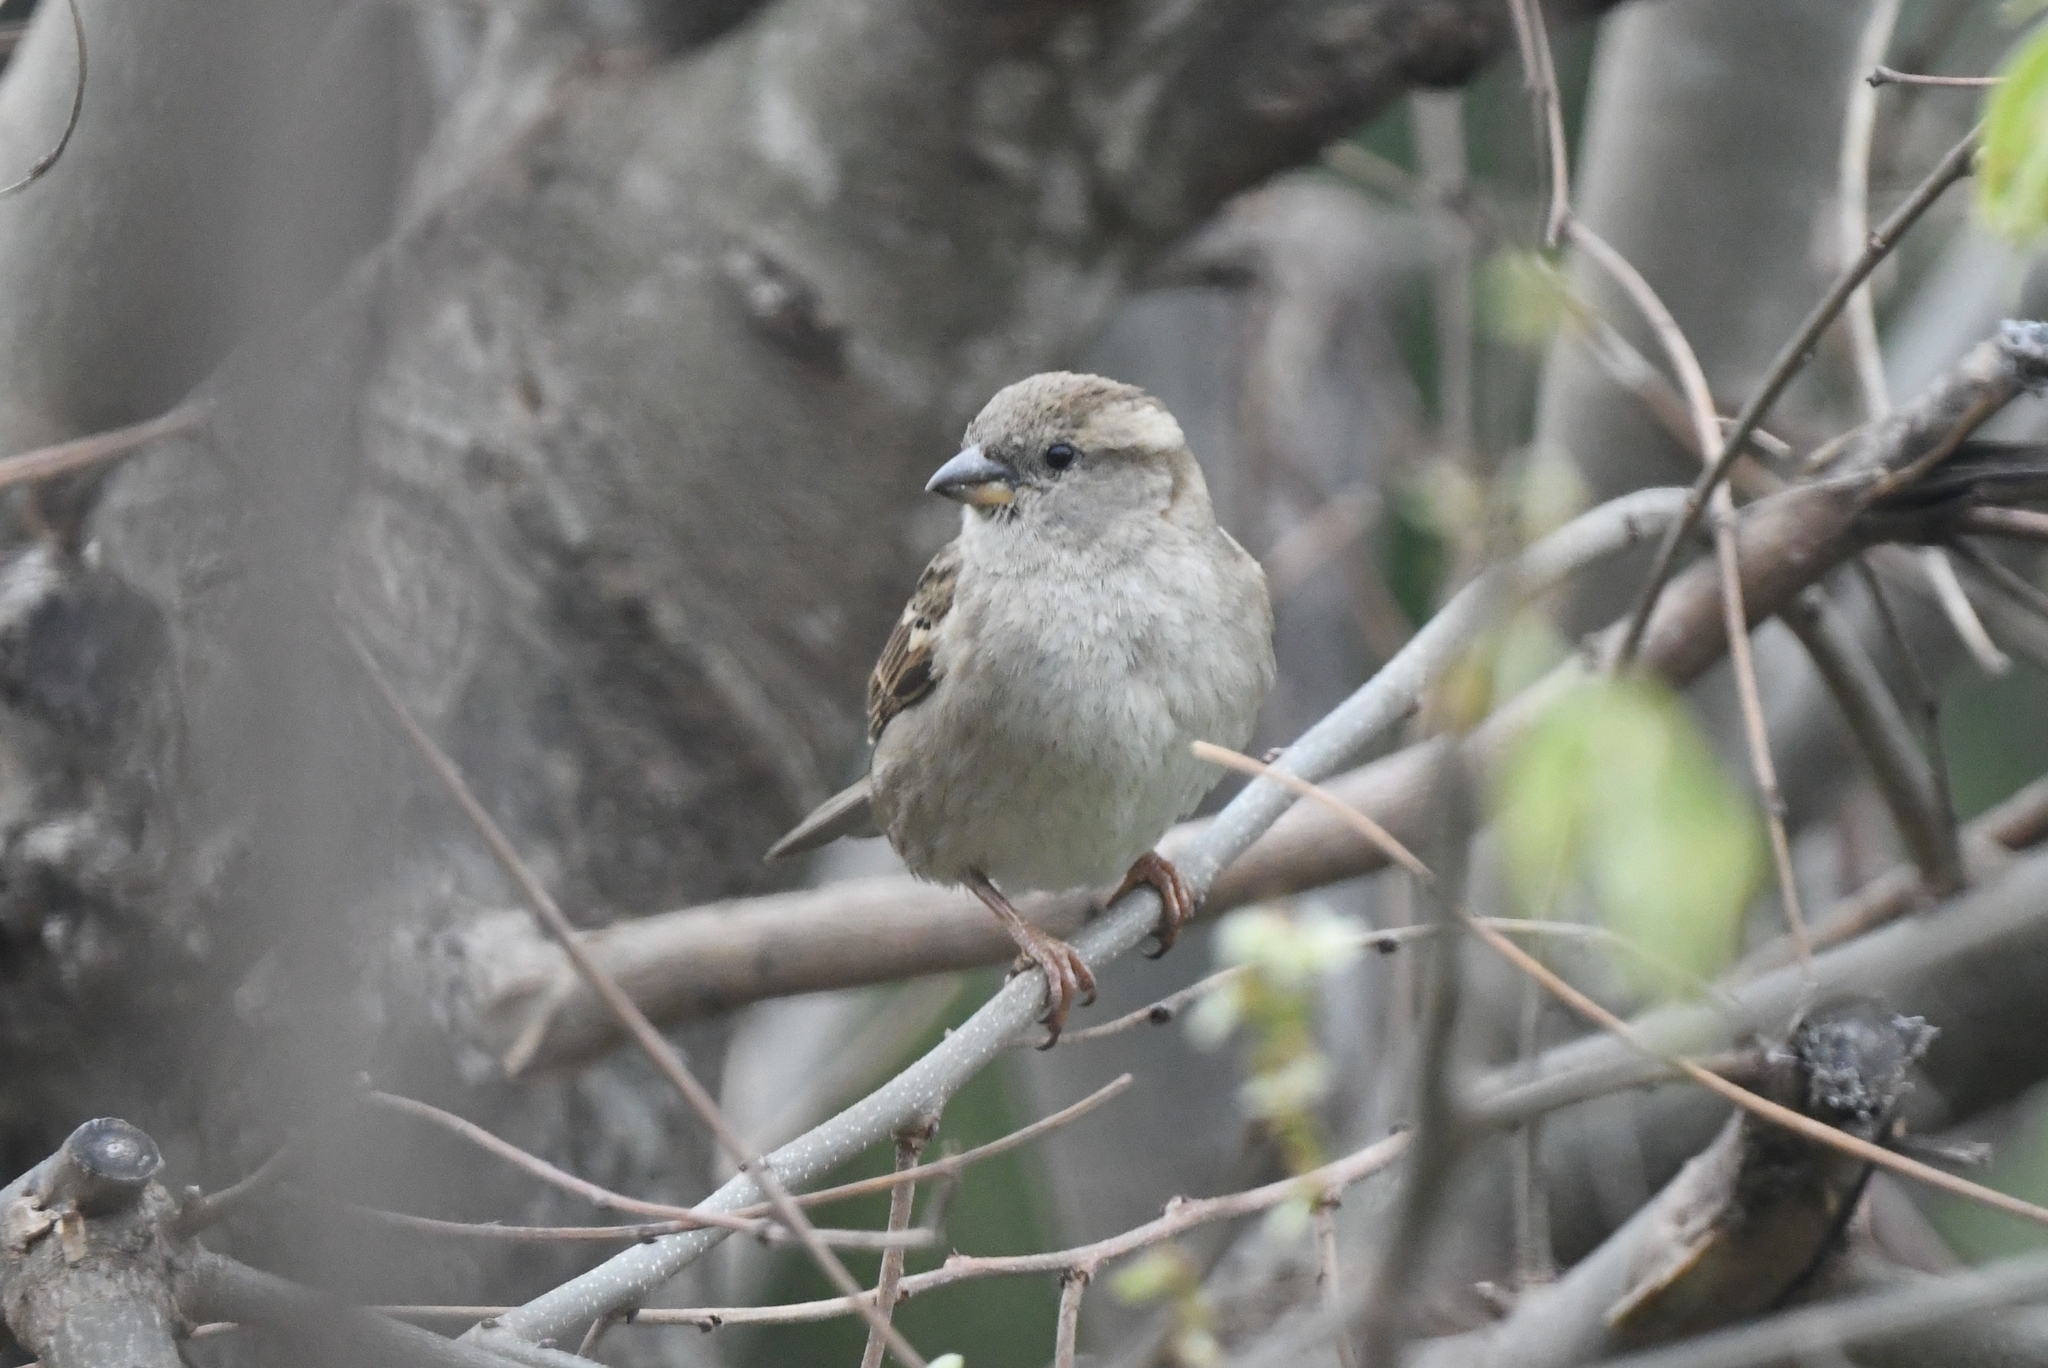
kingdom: Animalia
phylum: Chordata
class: Aves
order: Passeriformes
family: Passeridae
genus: Passer
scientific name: Passer domesticus
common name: House sparrow
